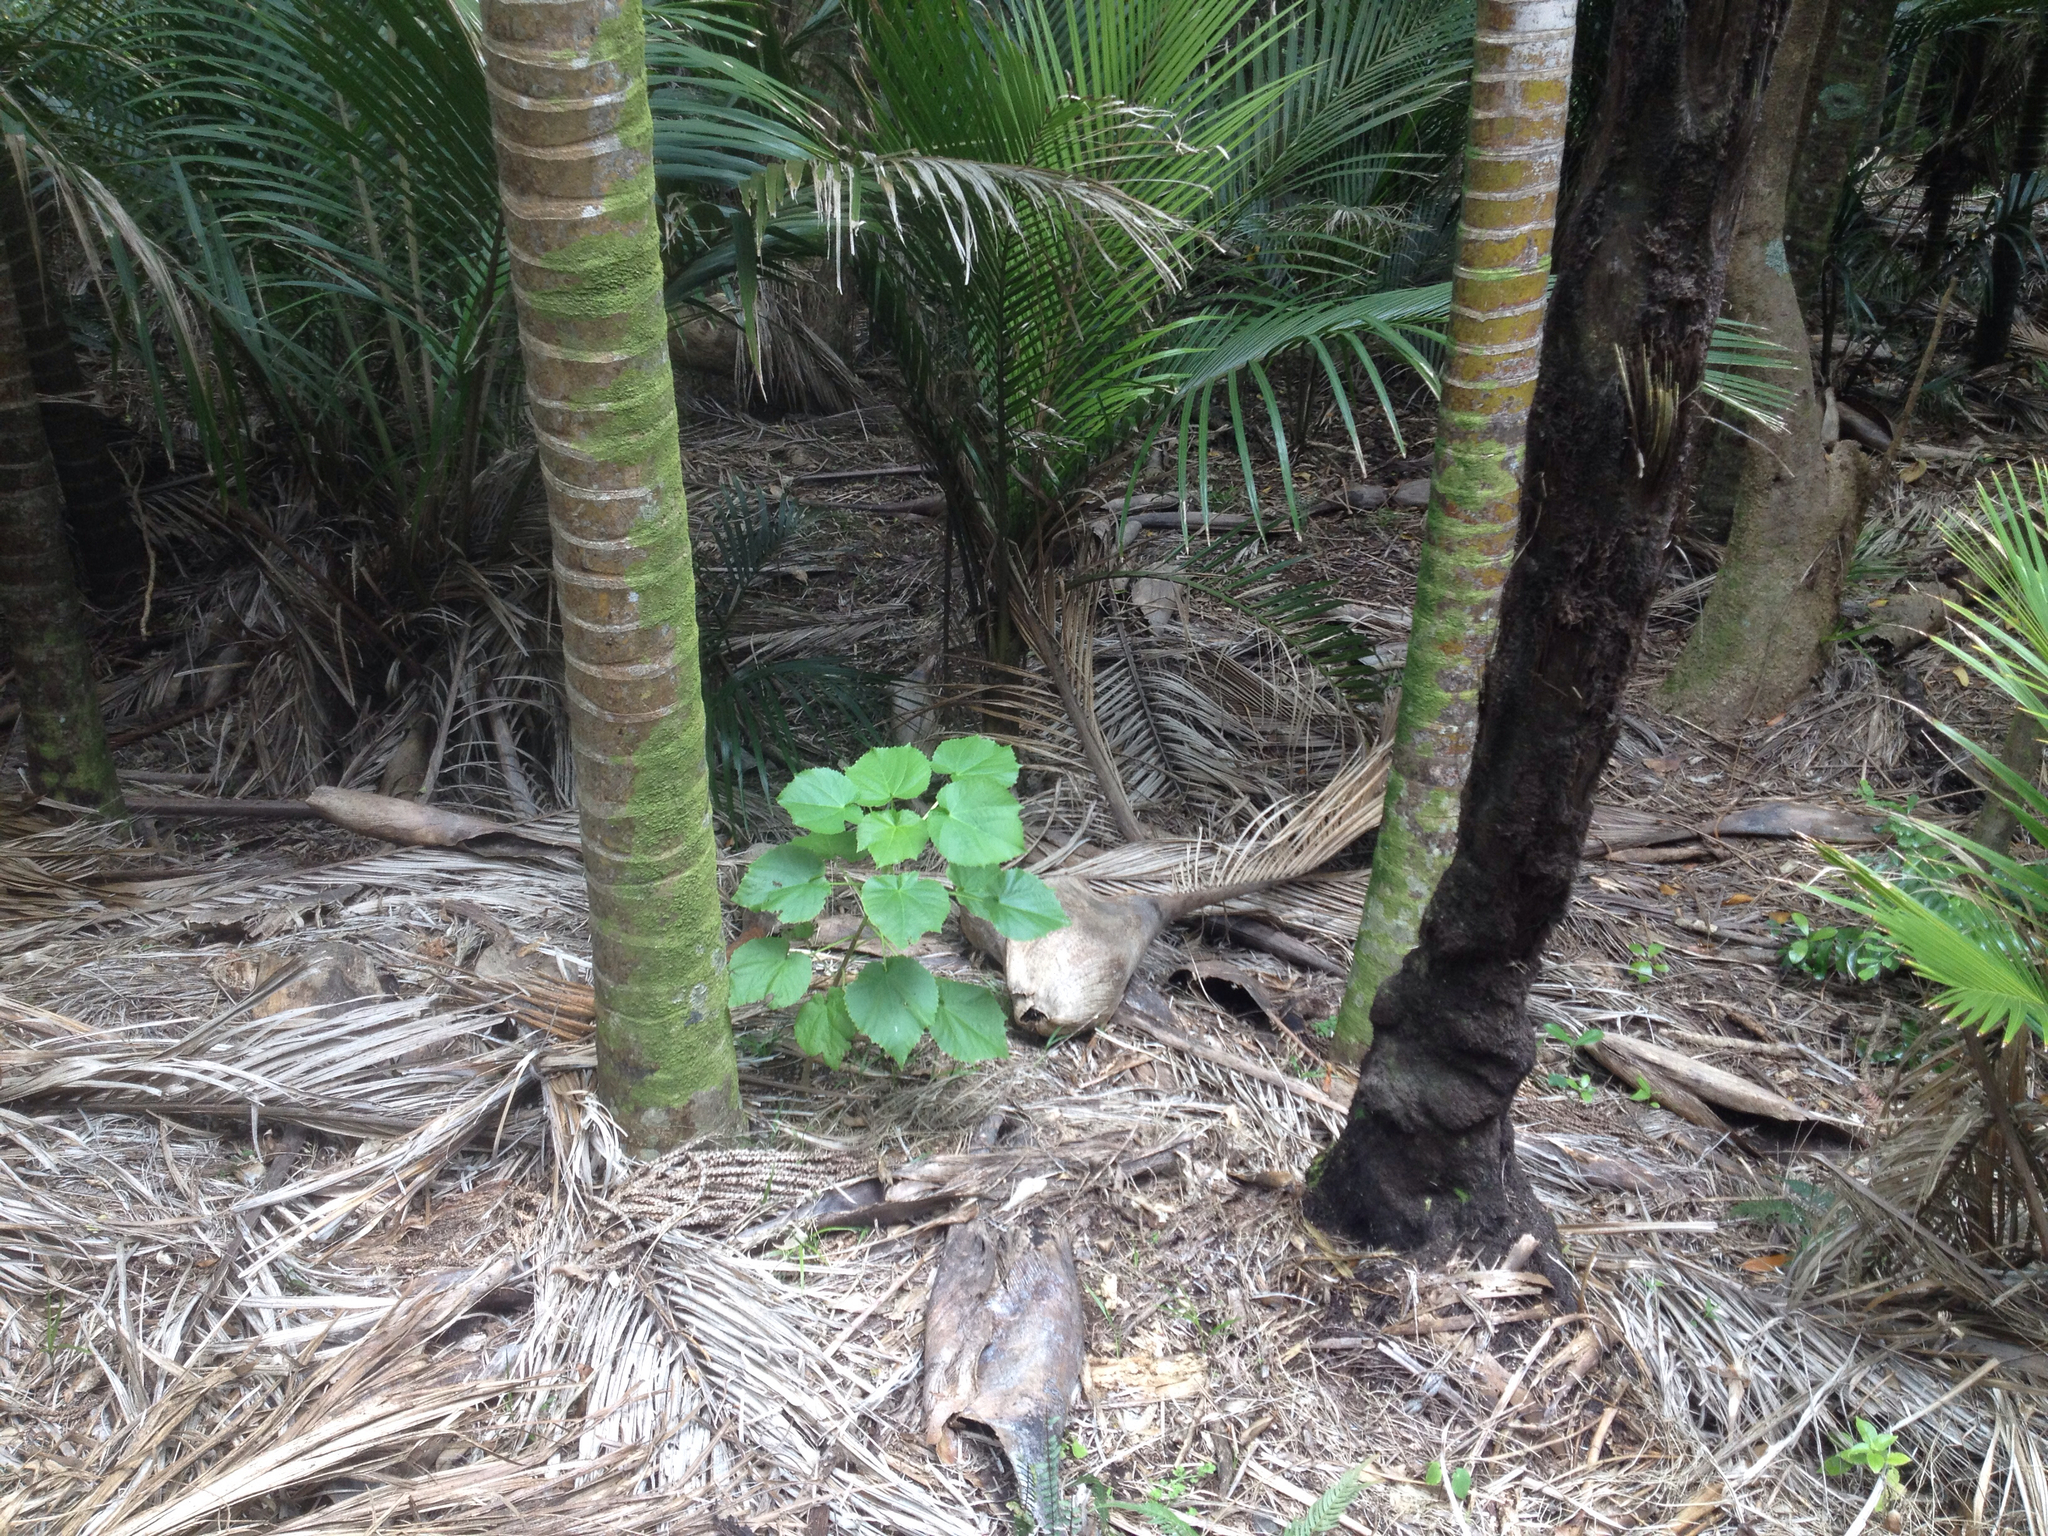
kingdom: Plantae
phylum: Tracheophyta
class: Magnoliopsida
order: Malvales
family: Malvaceae
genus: Entelea
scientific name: Entelea arborescens
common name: New zealand-mulberry
